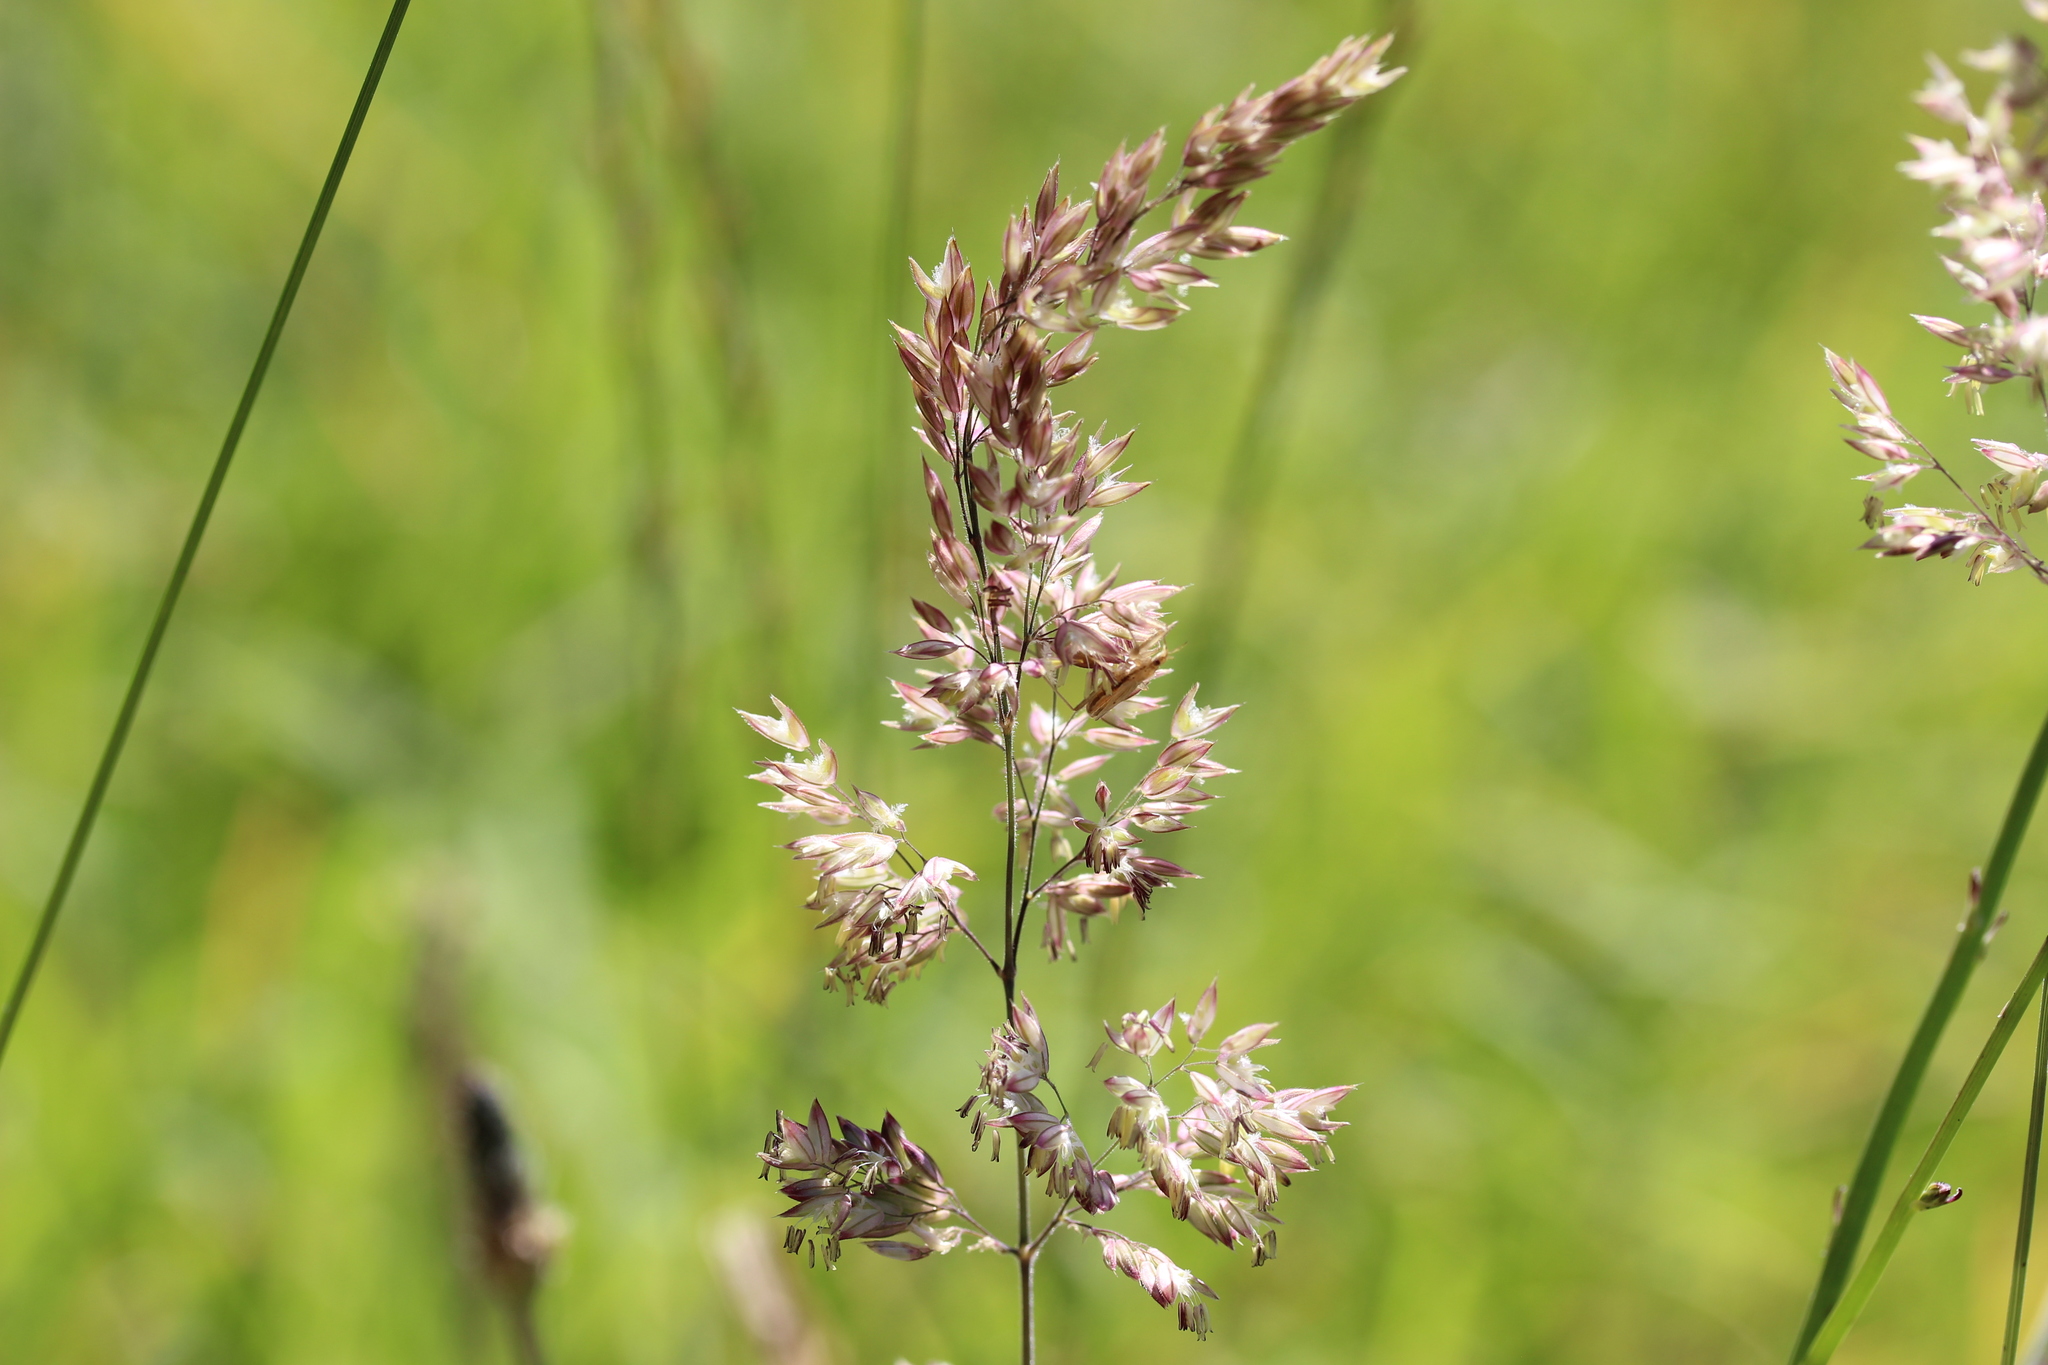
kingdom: Plantae
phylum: Tracheophyta
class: Liliopsida
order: Poales
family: Poaceae
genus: Holcus
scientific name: Holcus lanatus
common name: Yorkshire-fog
